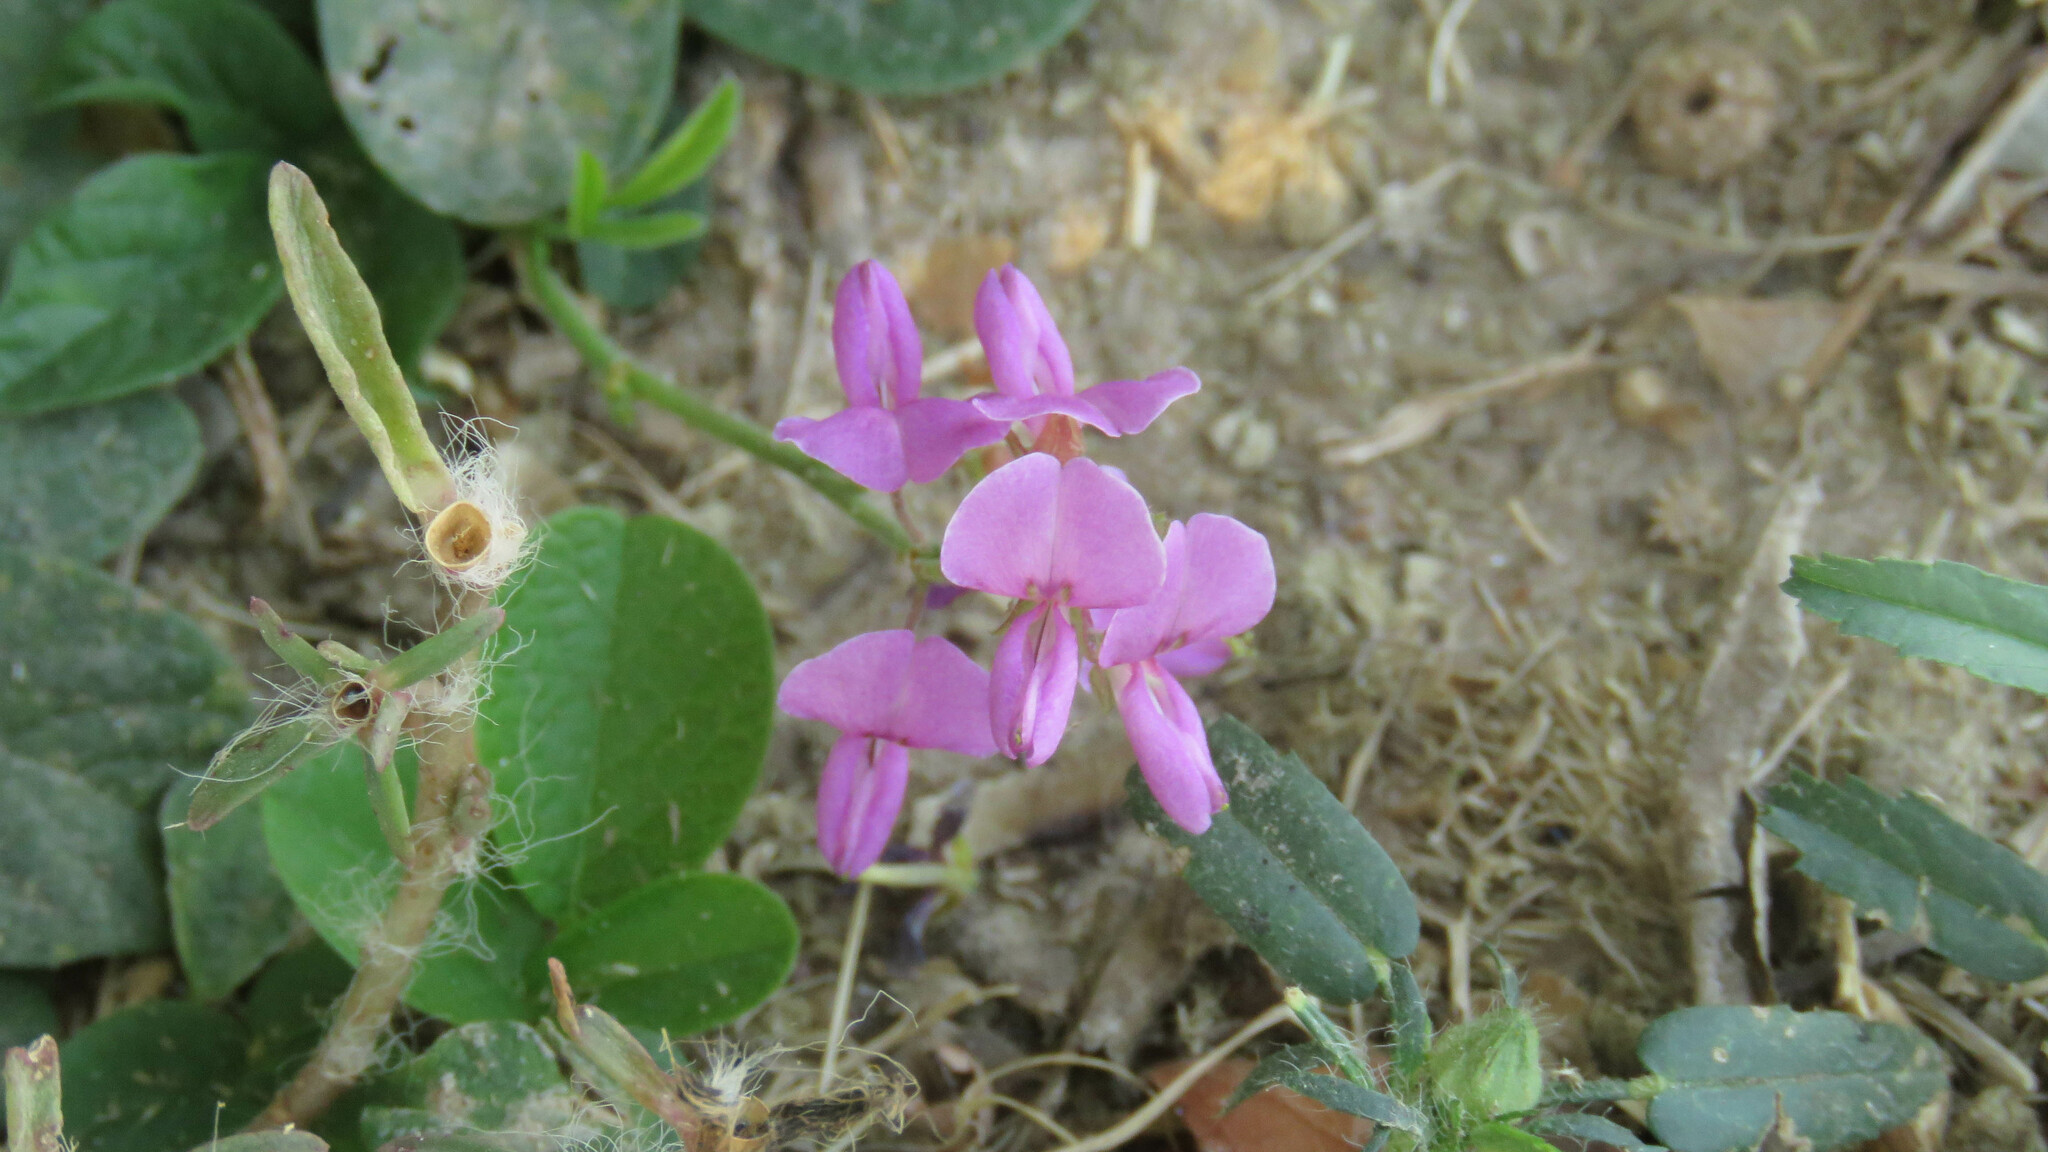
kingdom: Plantae
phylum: Tracheophyta
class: Magnoliopsida
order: Fabales
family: Fabaceae
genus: Desmodium
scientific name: Desmodium incanum
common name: Tickclover
